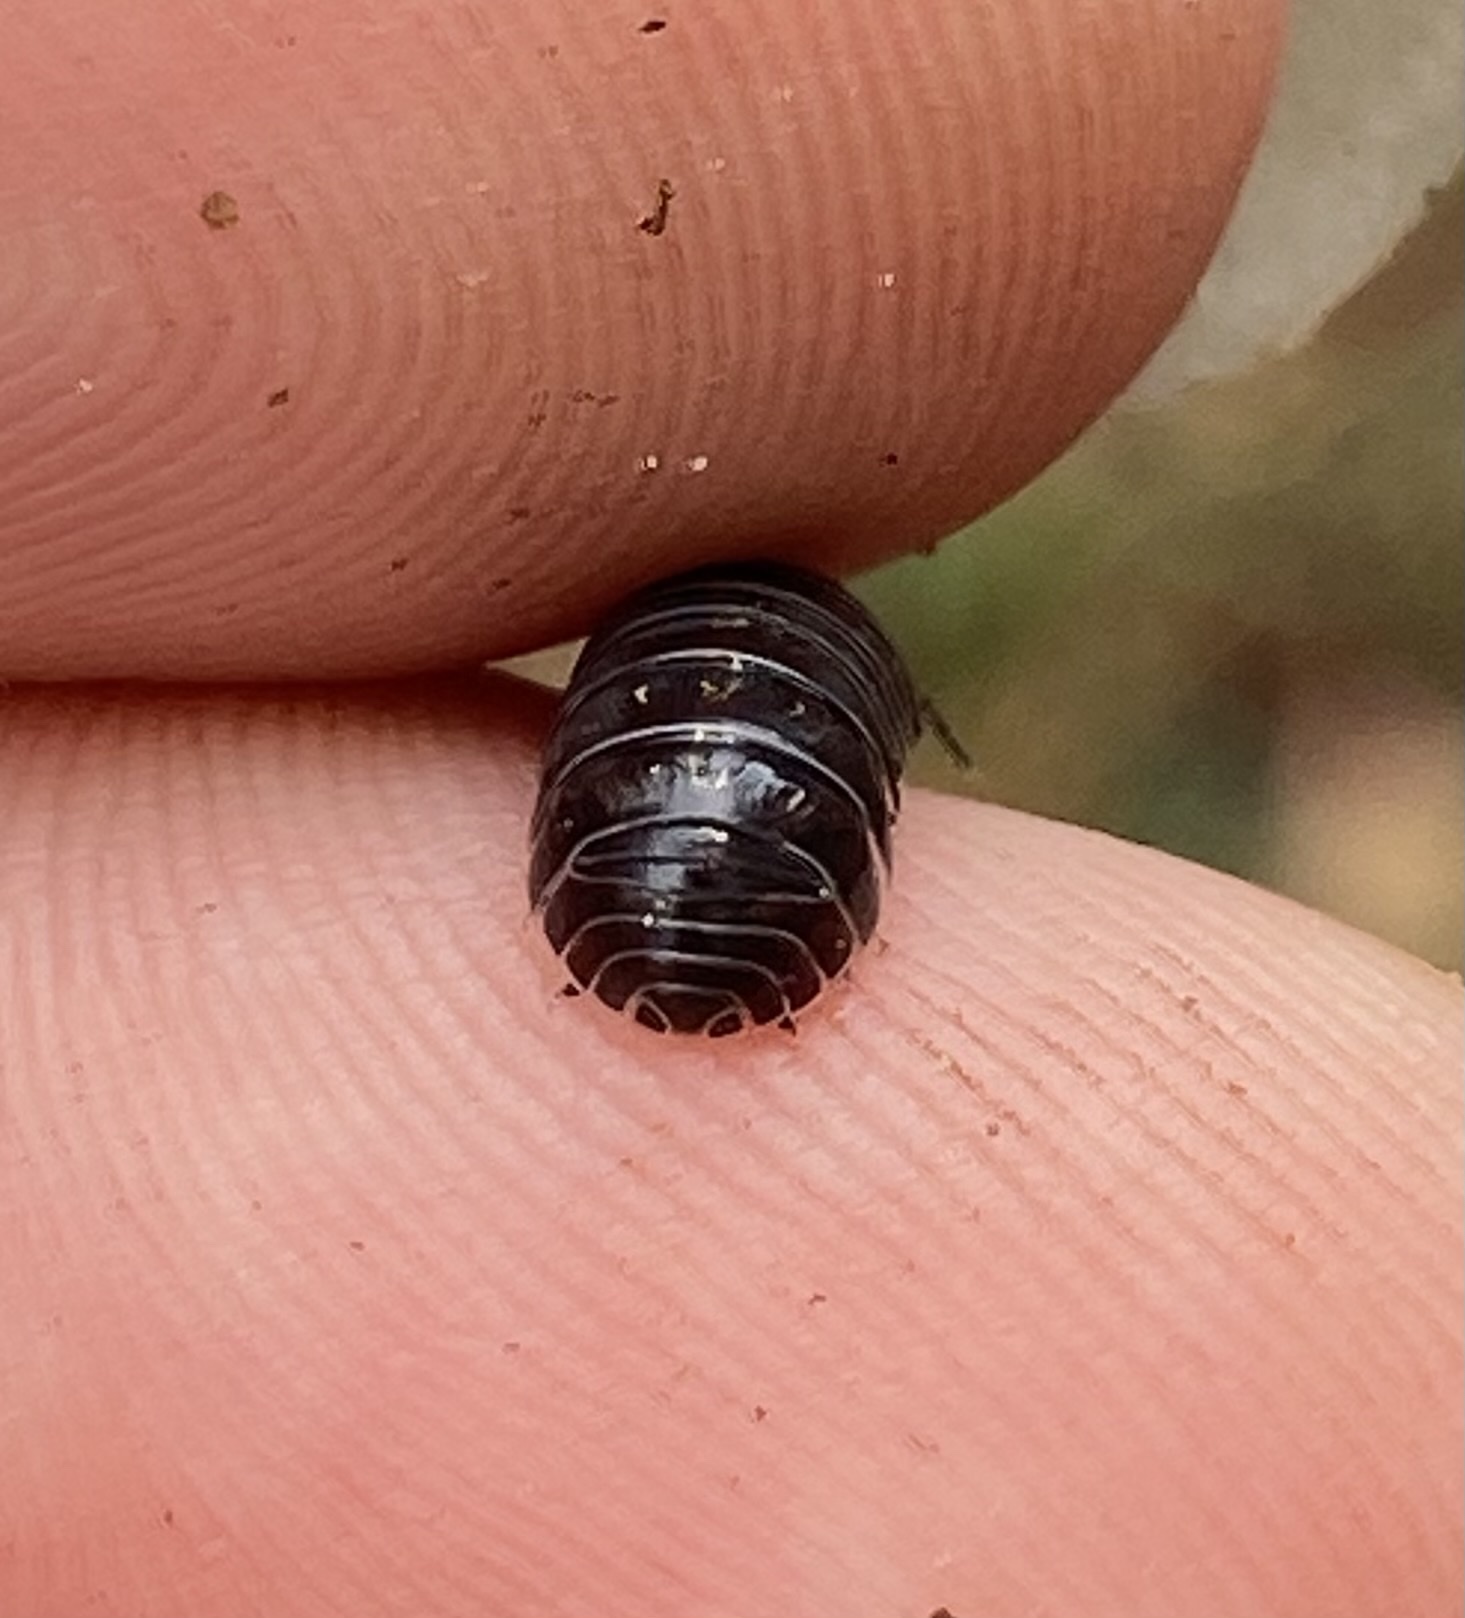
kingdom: Animalia
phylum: Arthropoda
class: Malacostraca
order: Isopoda
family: Armadillidiidae
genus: Armadillidium
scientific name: Armadillidium vulgare
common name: Common pill woodlouse
